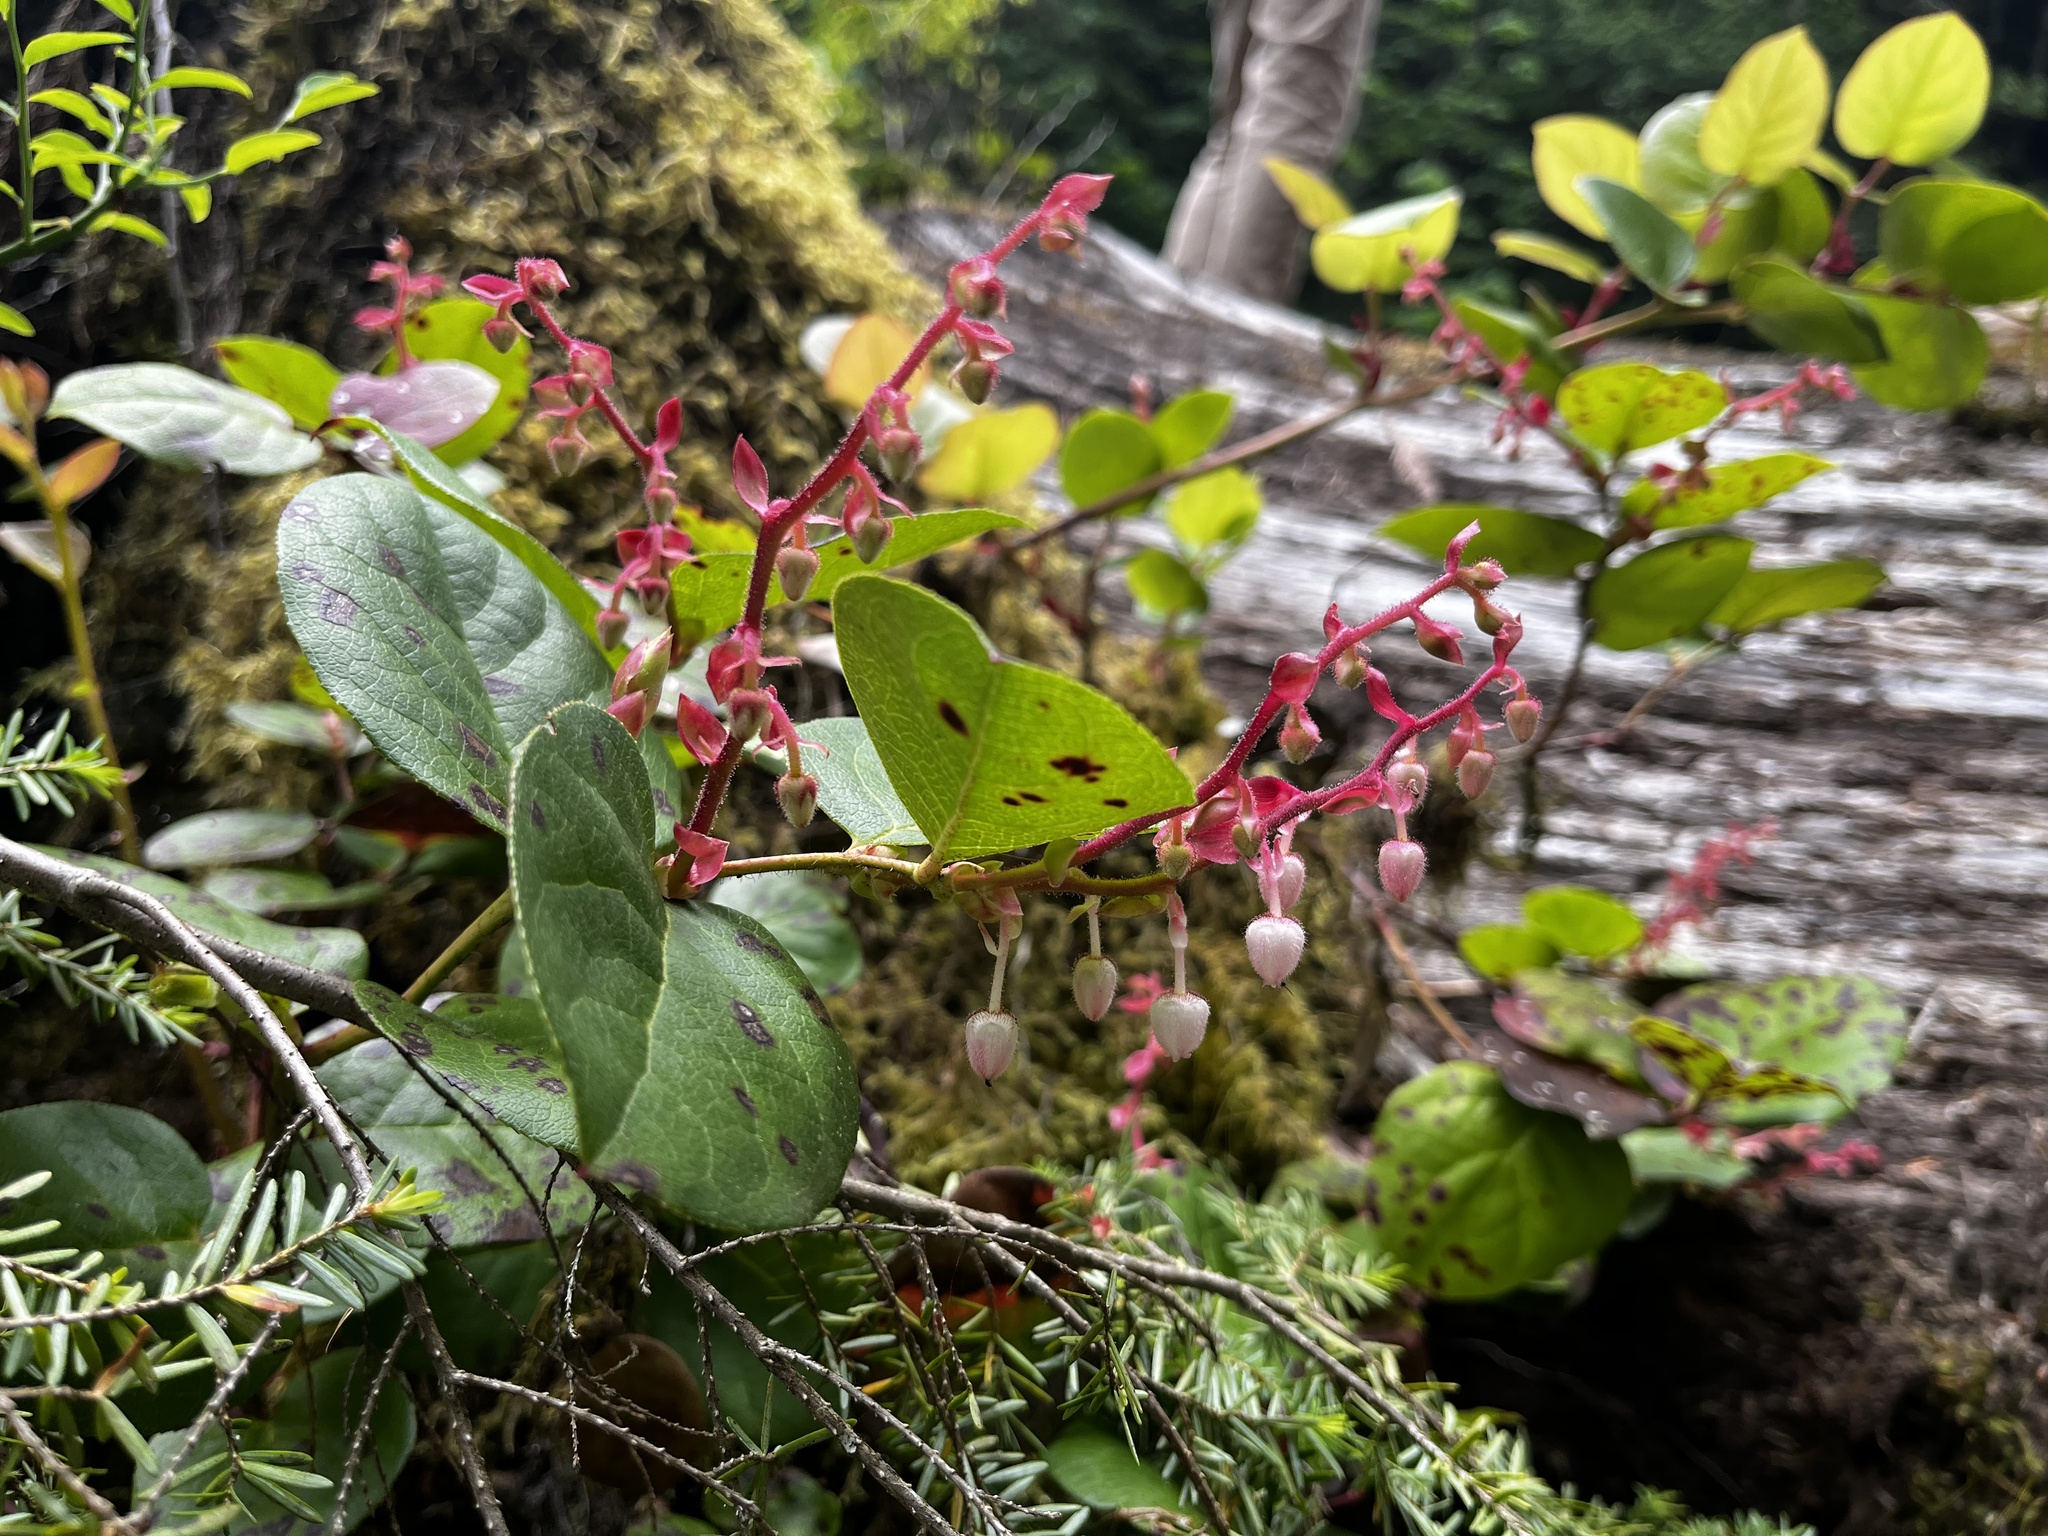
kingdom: Plantae
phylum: Tracheophyta
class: Magnoliopsida
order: Ericales
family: Ericaceae
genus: Gaultheria
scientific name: Gaultheria shallon
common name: Shallon
